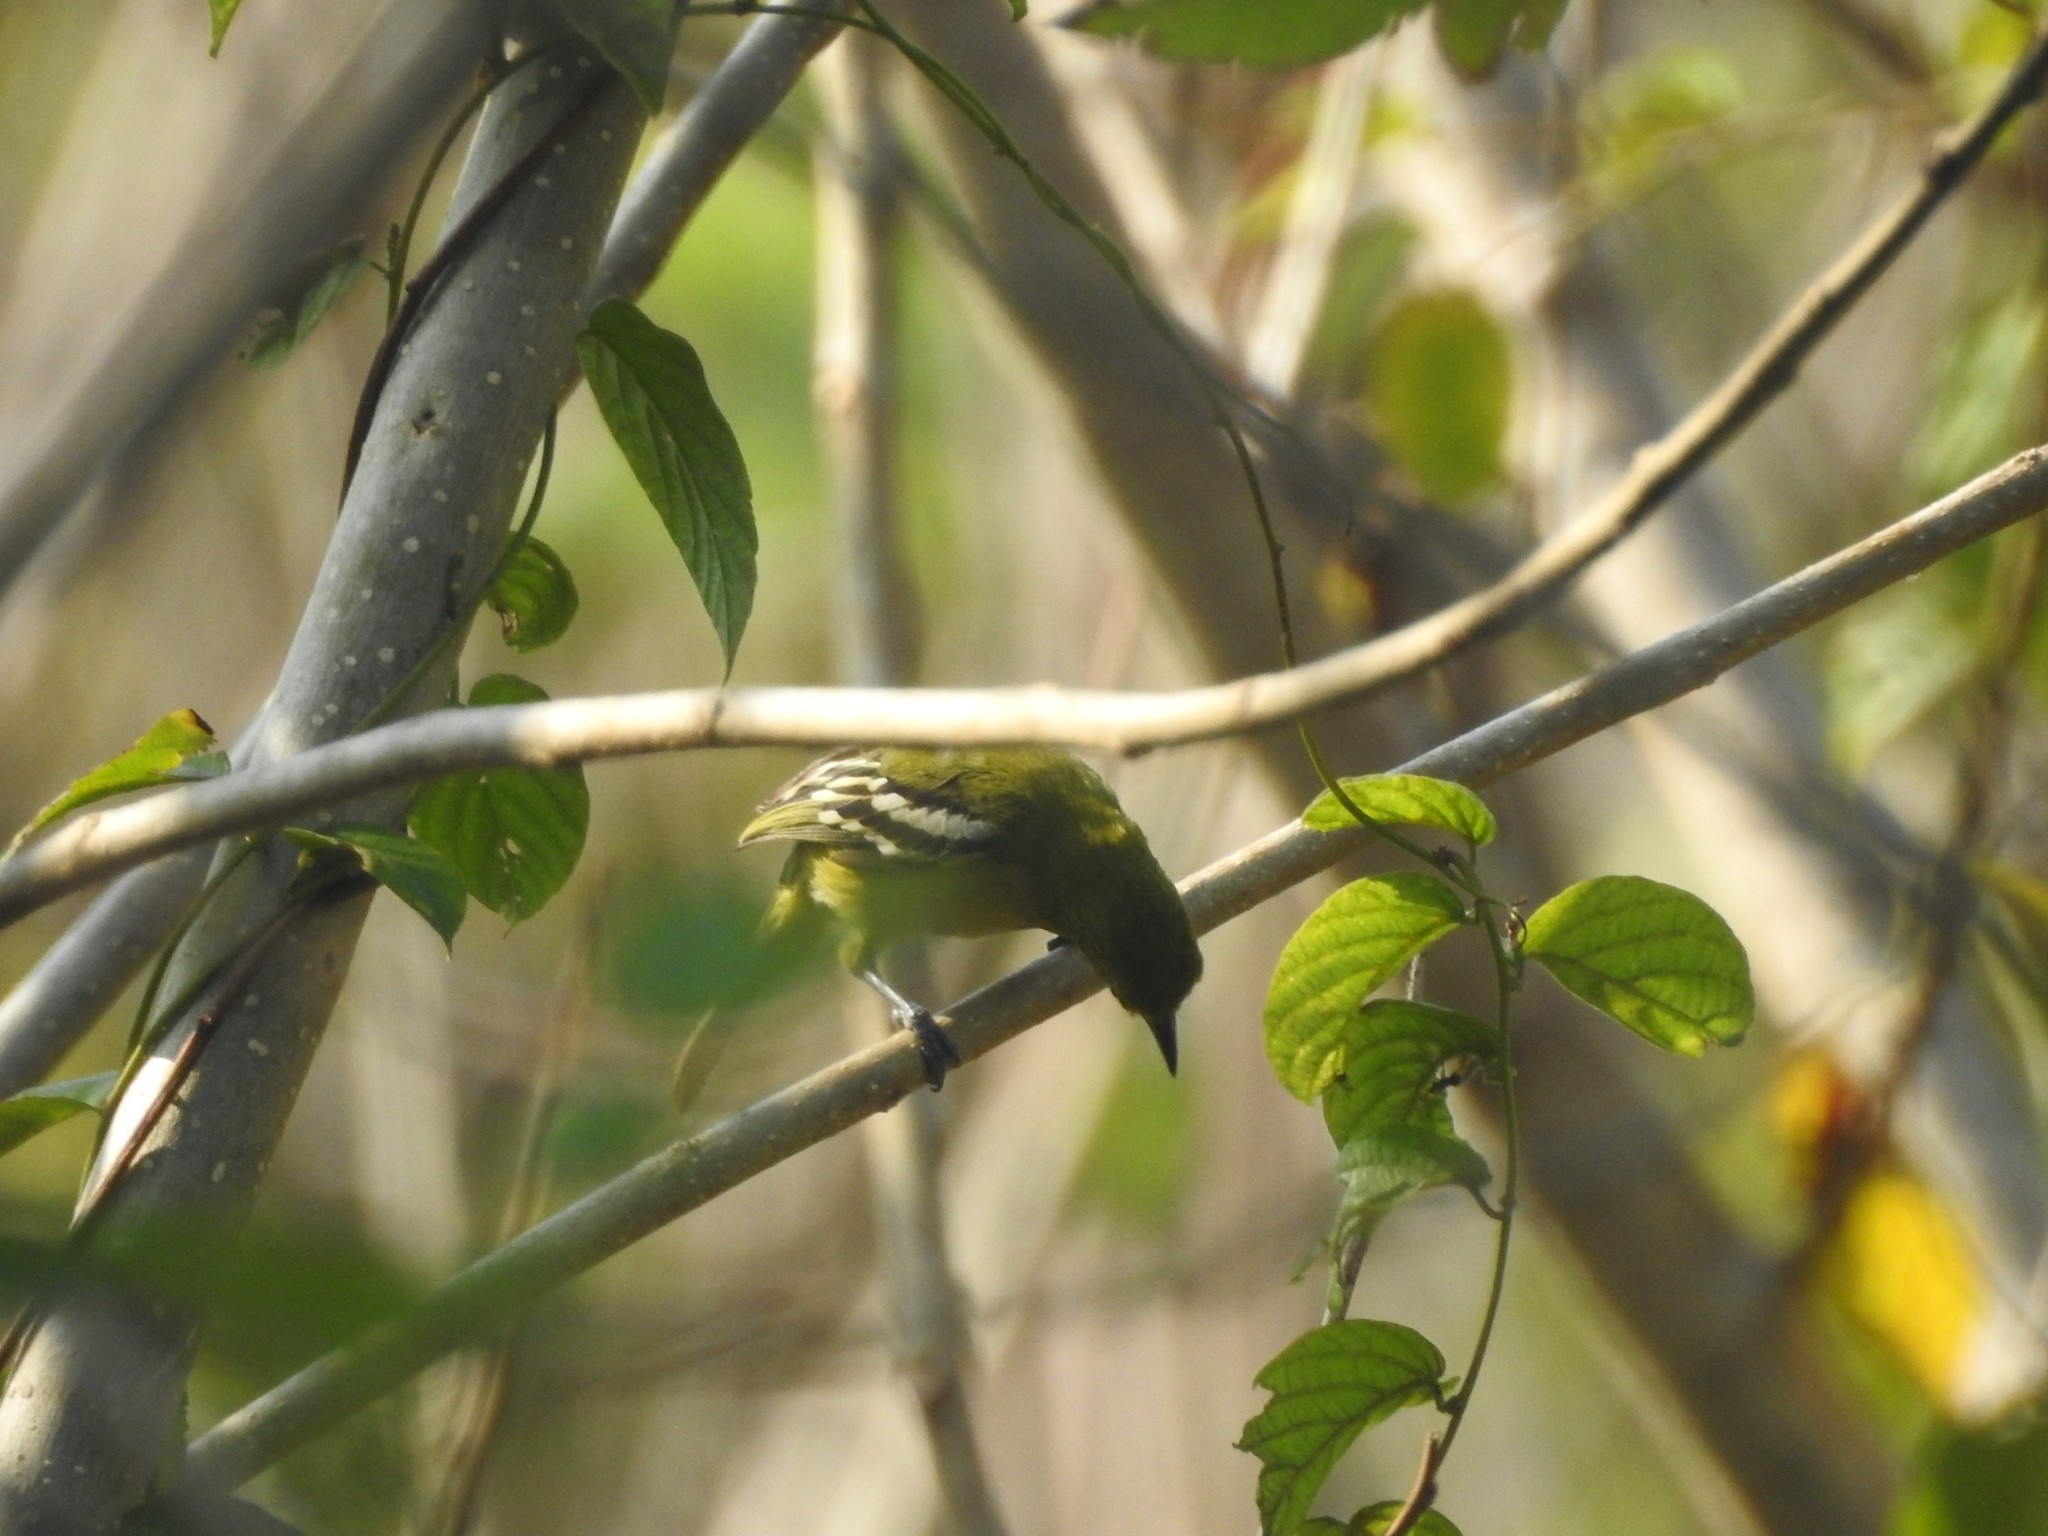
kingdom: Animalia
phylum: Chordata
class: Aves
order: Passeriformes
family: Aegithinidae
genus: Aegithina
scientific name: Aegithina tiphia
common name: Common iora
